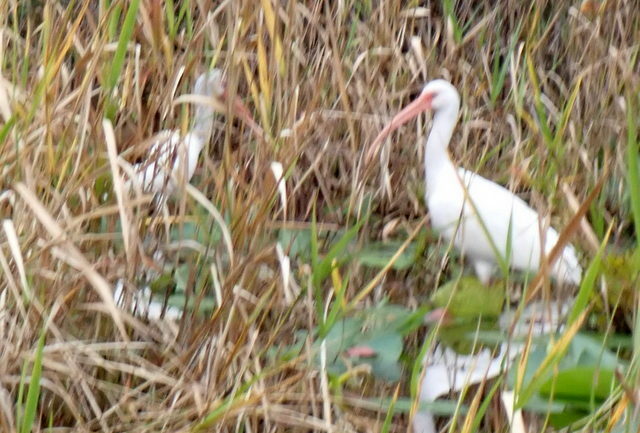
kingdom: Animalia
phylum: Chordata
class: Aves
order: Pelecaniformes
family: Threskiornithidae
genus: Eudocimus
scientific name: Eudocimus albus
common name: White ibis
